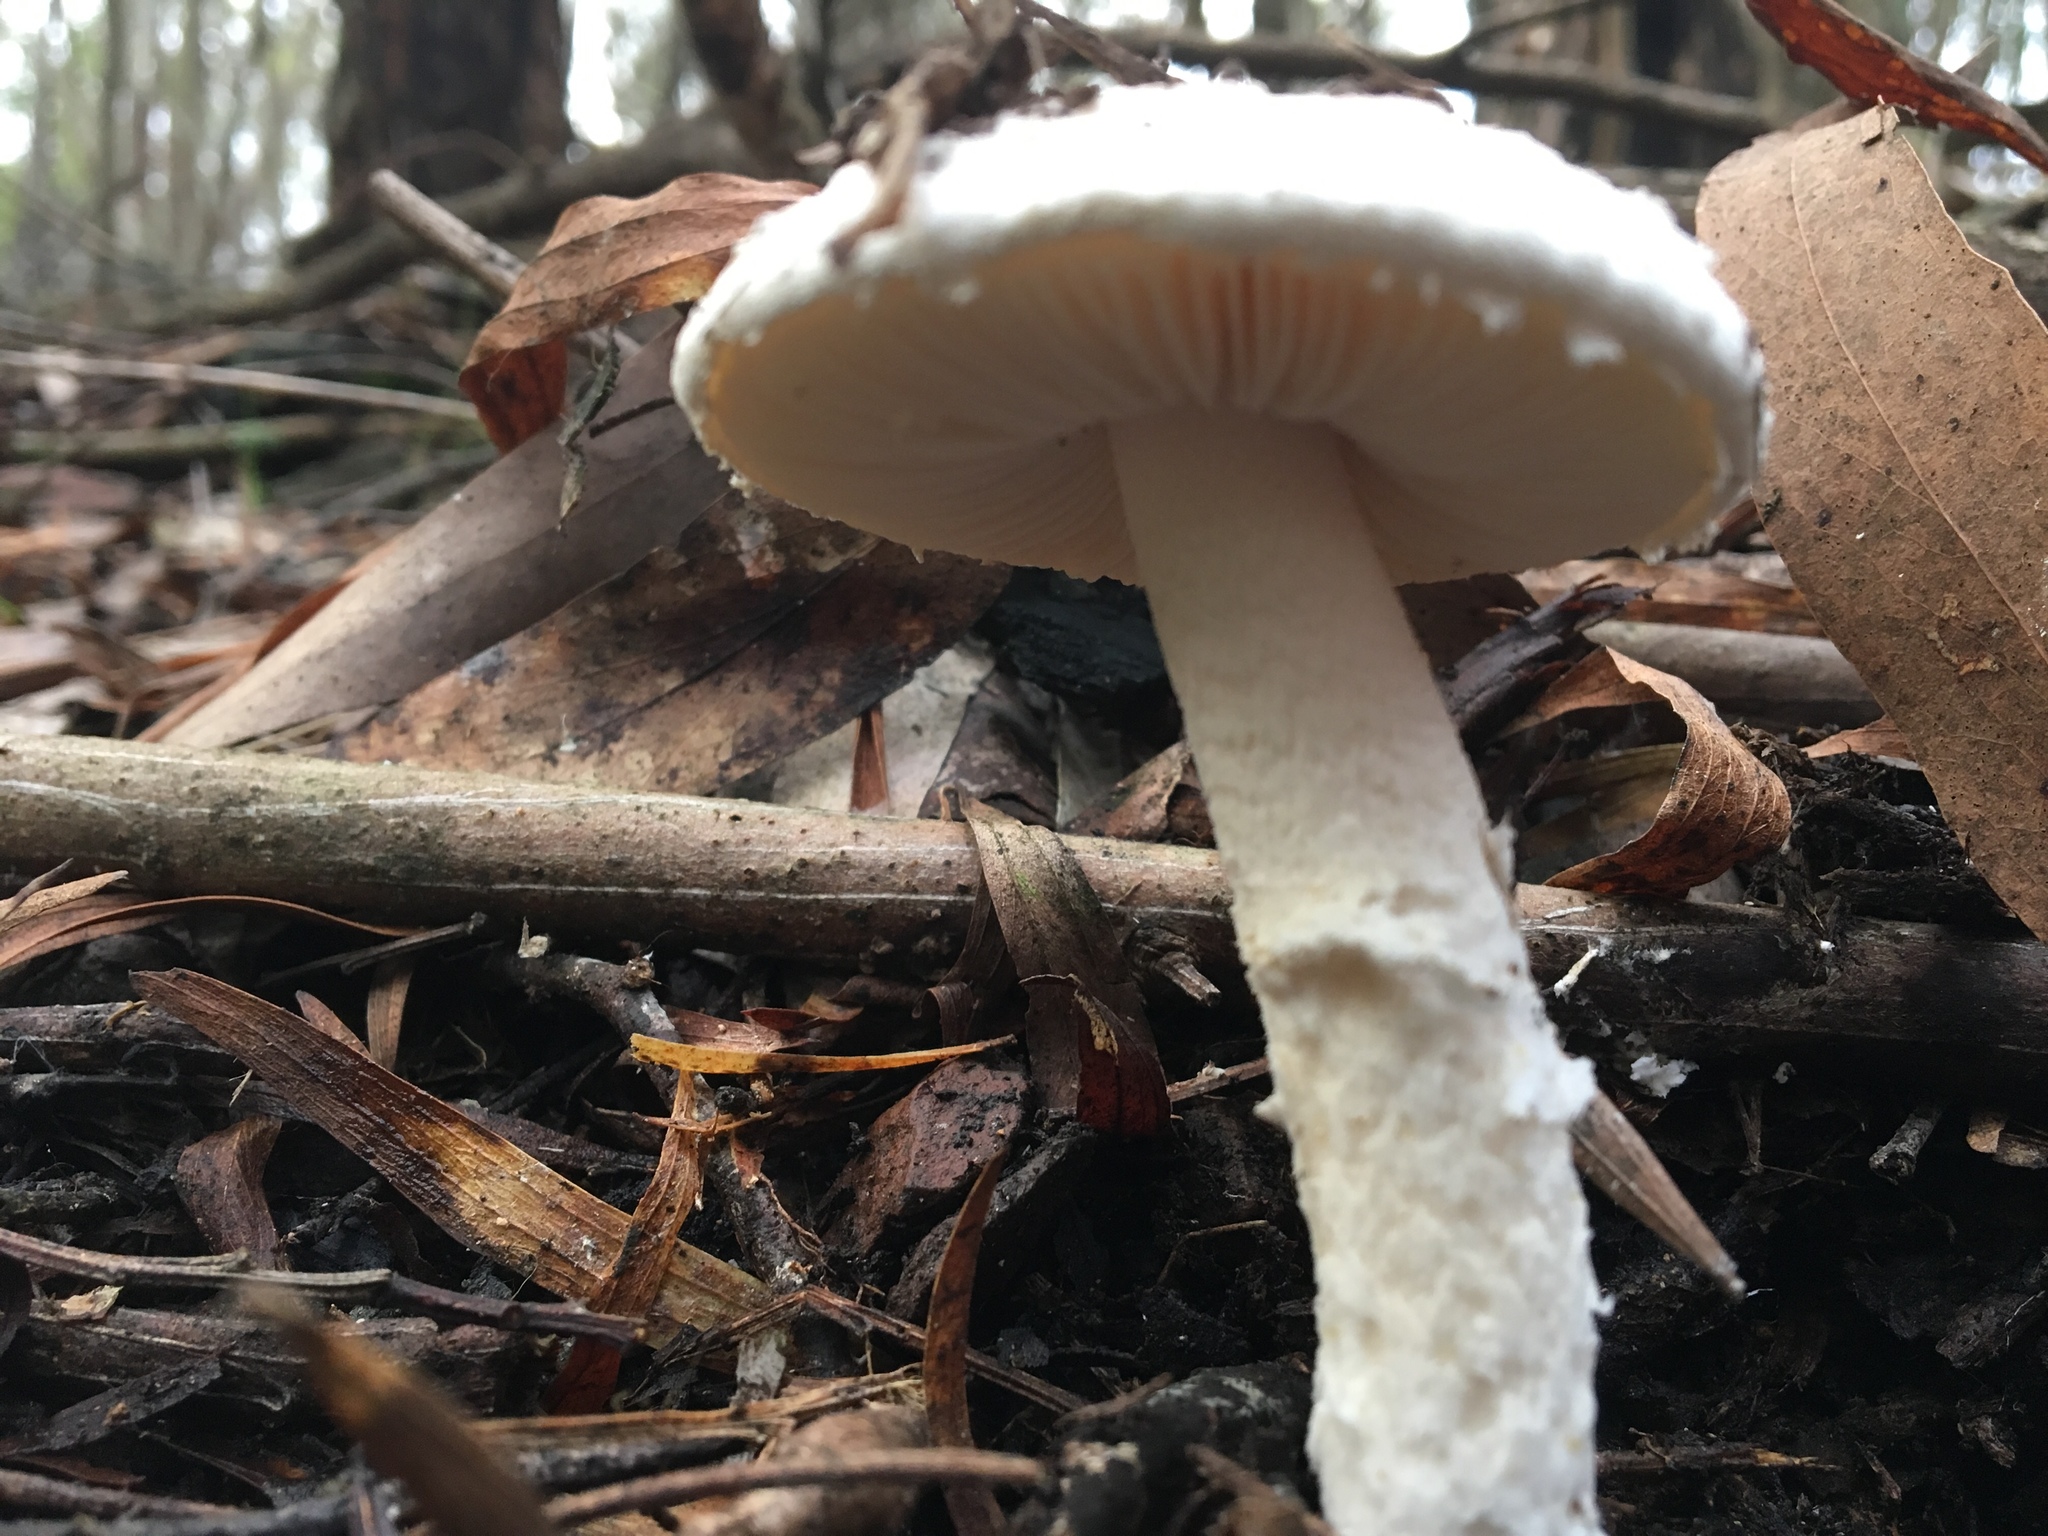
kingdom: Fungi
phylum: Basidiomycota
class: Agaricomycetes
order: Agaricales
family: Amanitaceae
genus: Amanita
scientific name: Amanita farinacea
